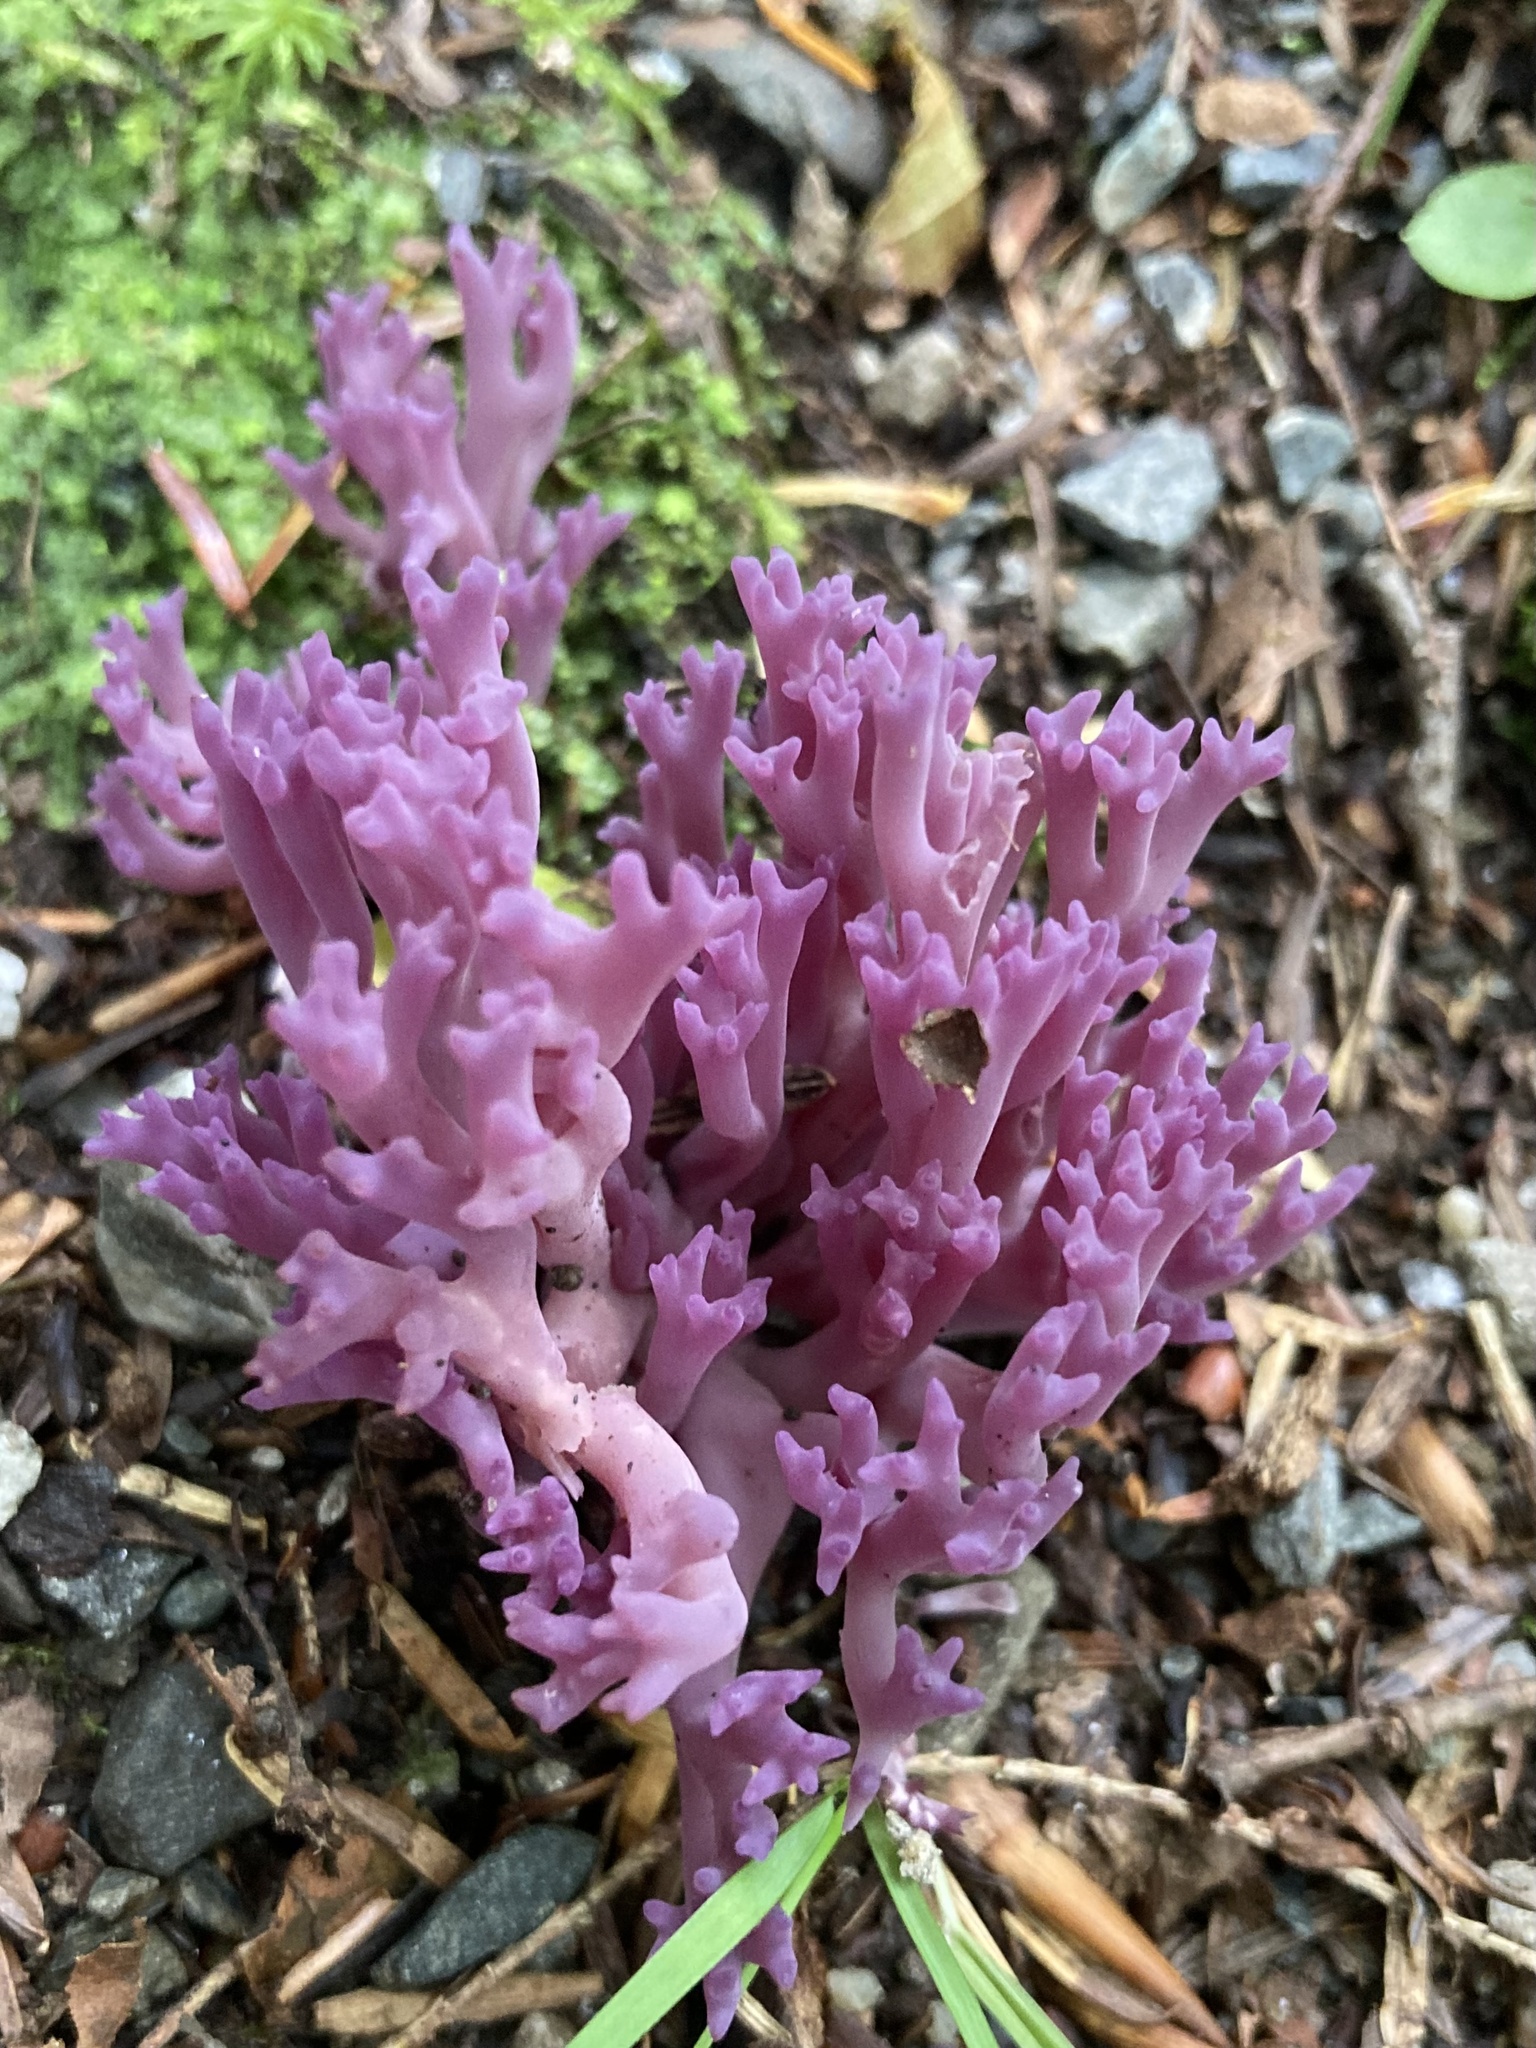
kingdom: Fungi
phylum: Basidiomycota
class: Agaricomycetes
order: Agaricales
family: Clavariaceae
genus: Clavaria
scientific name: Clavaria zollingeri
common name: Violet coral
